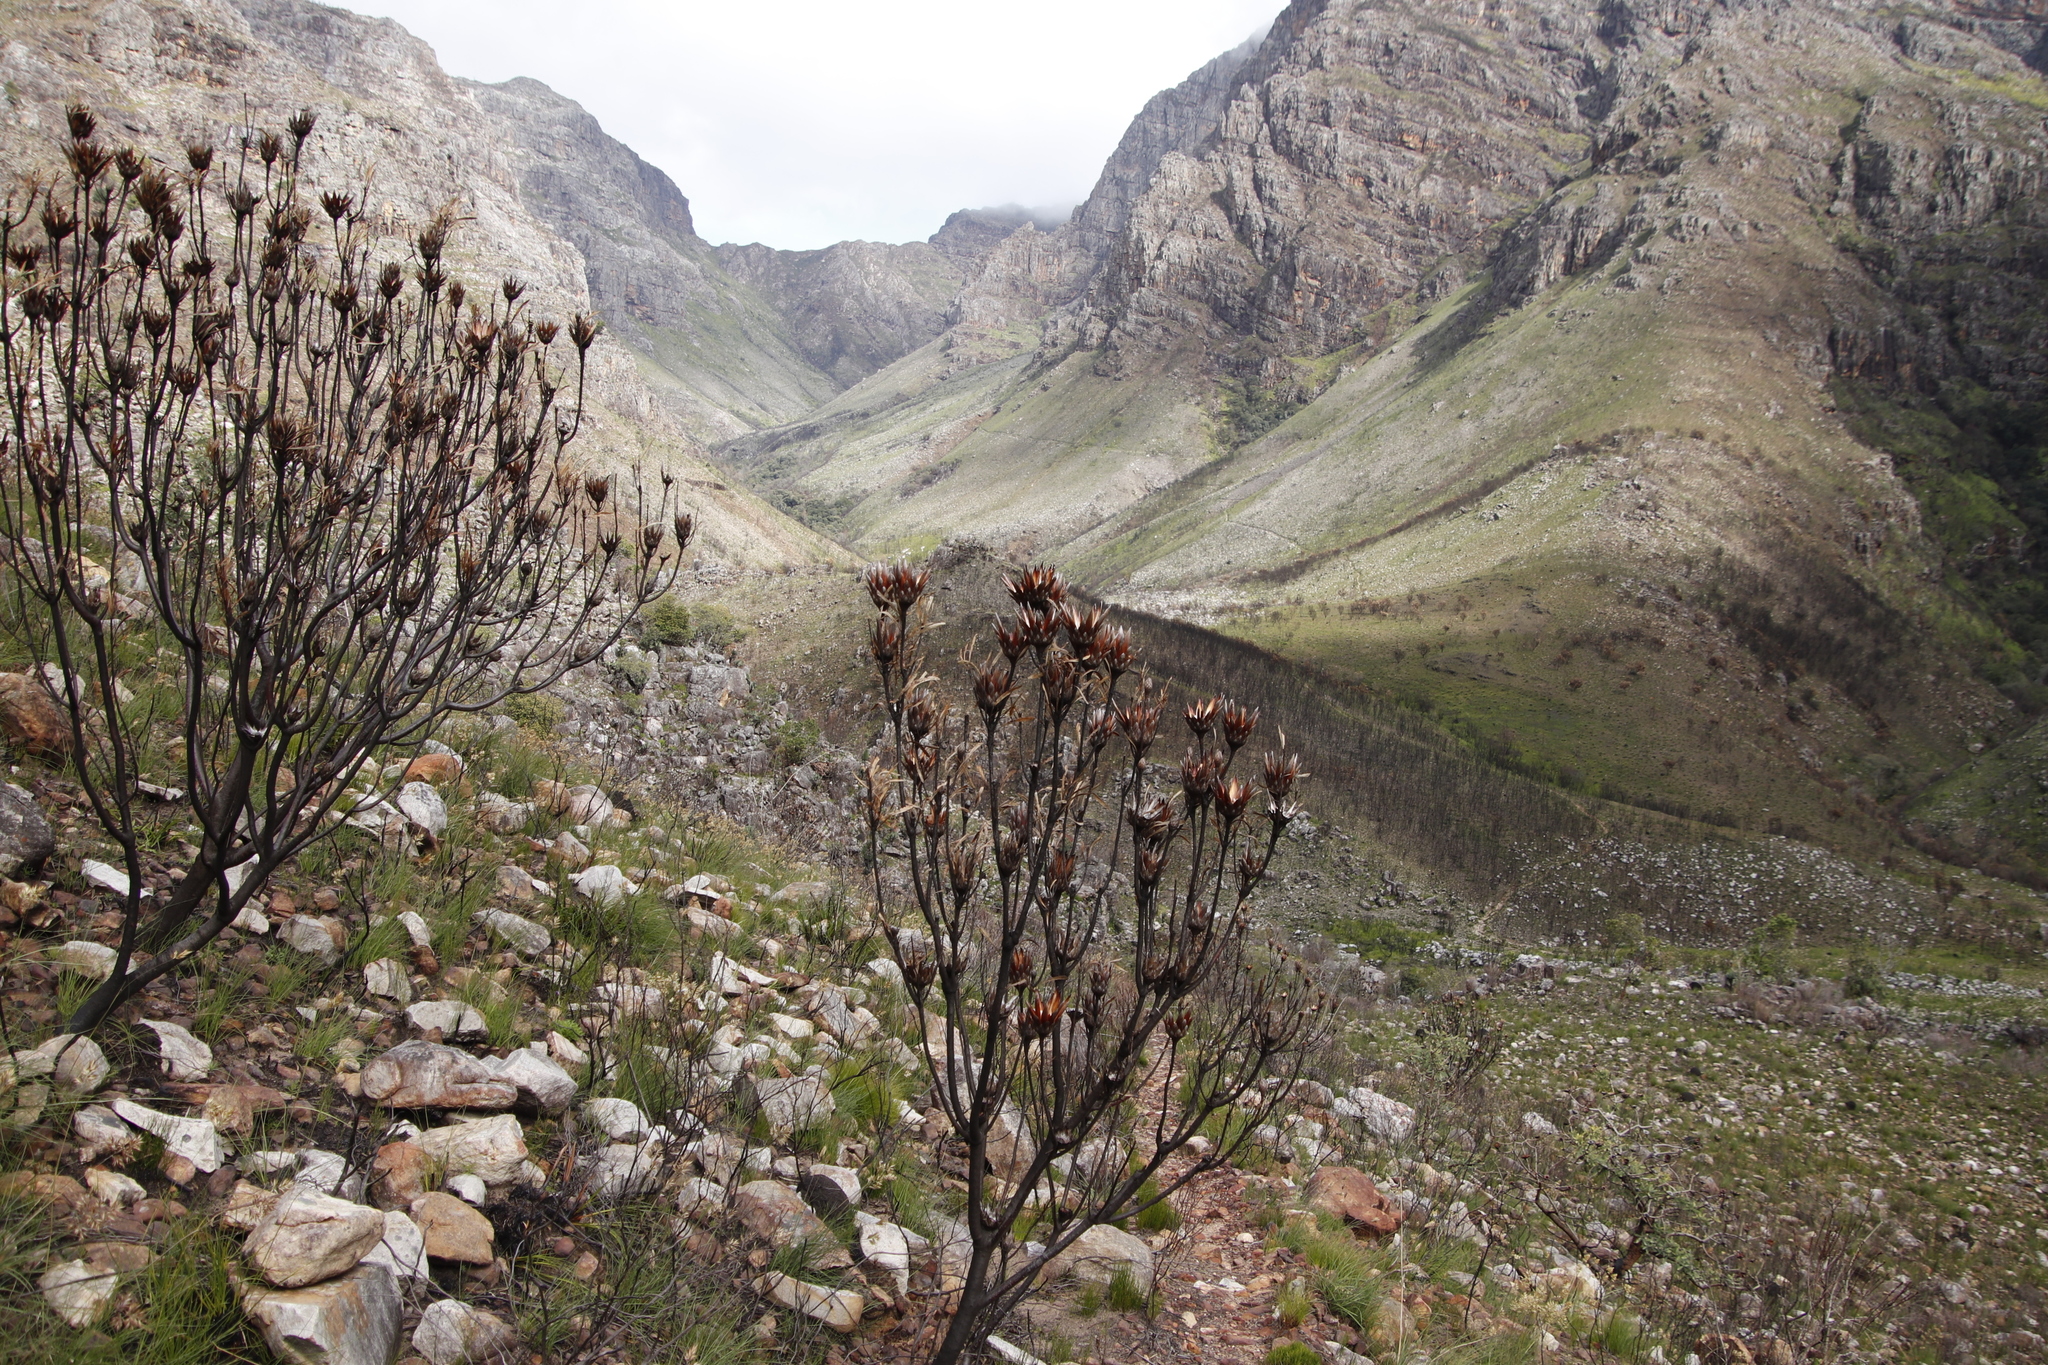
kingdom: Plantae
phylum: Tracheophyta
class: Magnoliopsida
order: Proteales
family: Proteaceae
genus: Protea
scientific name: Protea repens
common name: Sugarbush
